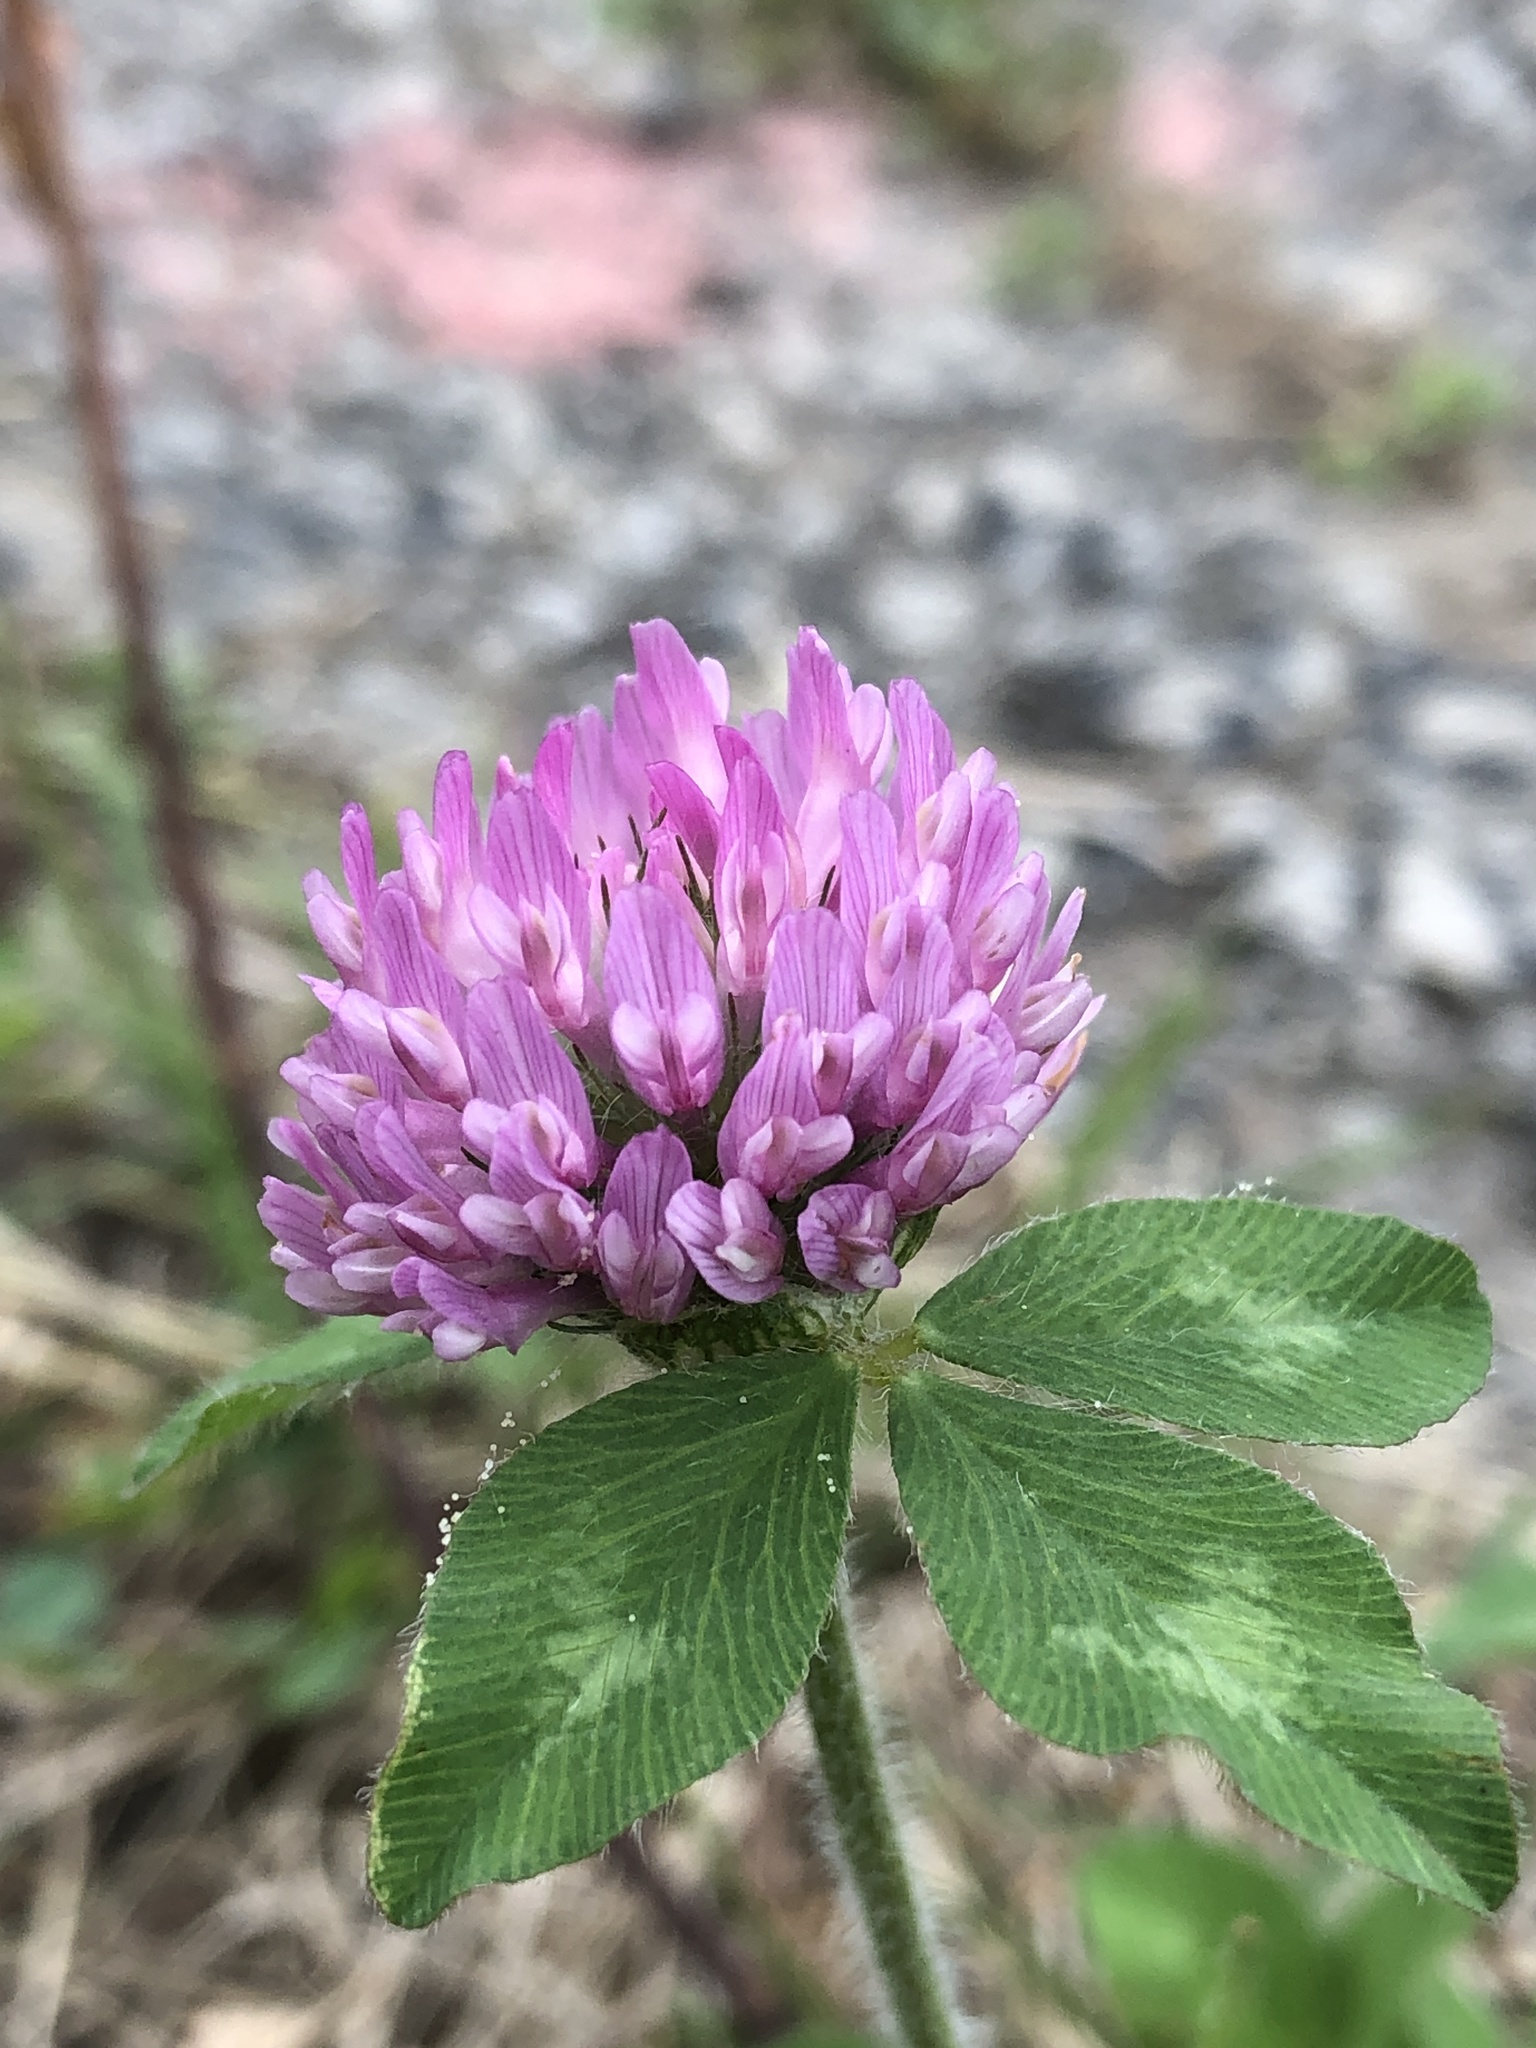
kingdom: Plantae
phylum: Tracheophyta
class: Magnoliopsida
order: Fabales
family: Fabaceae
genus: Trifolium
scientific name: Trifolium pratense
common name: Red clover
